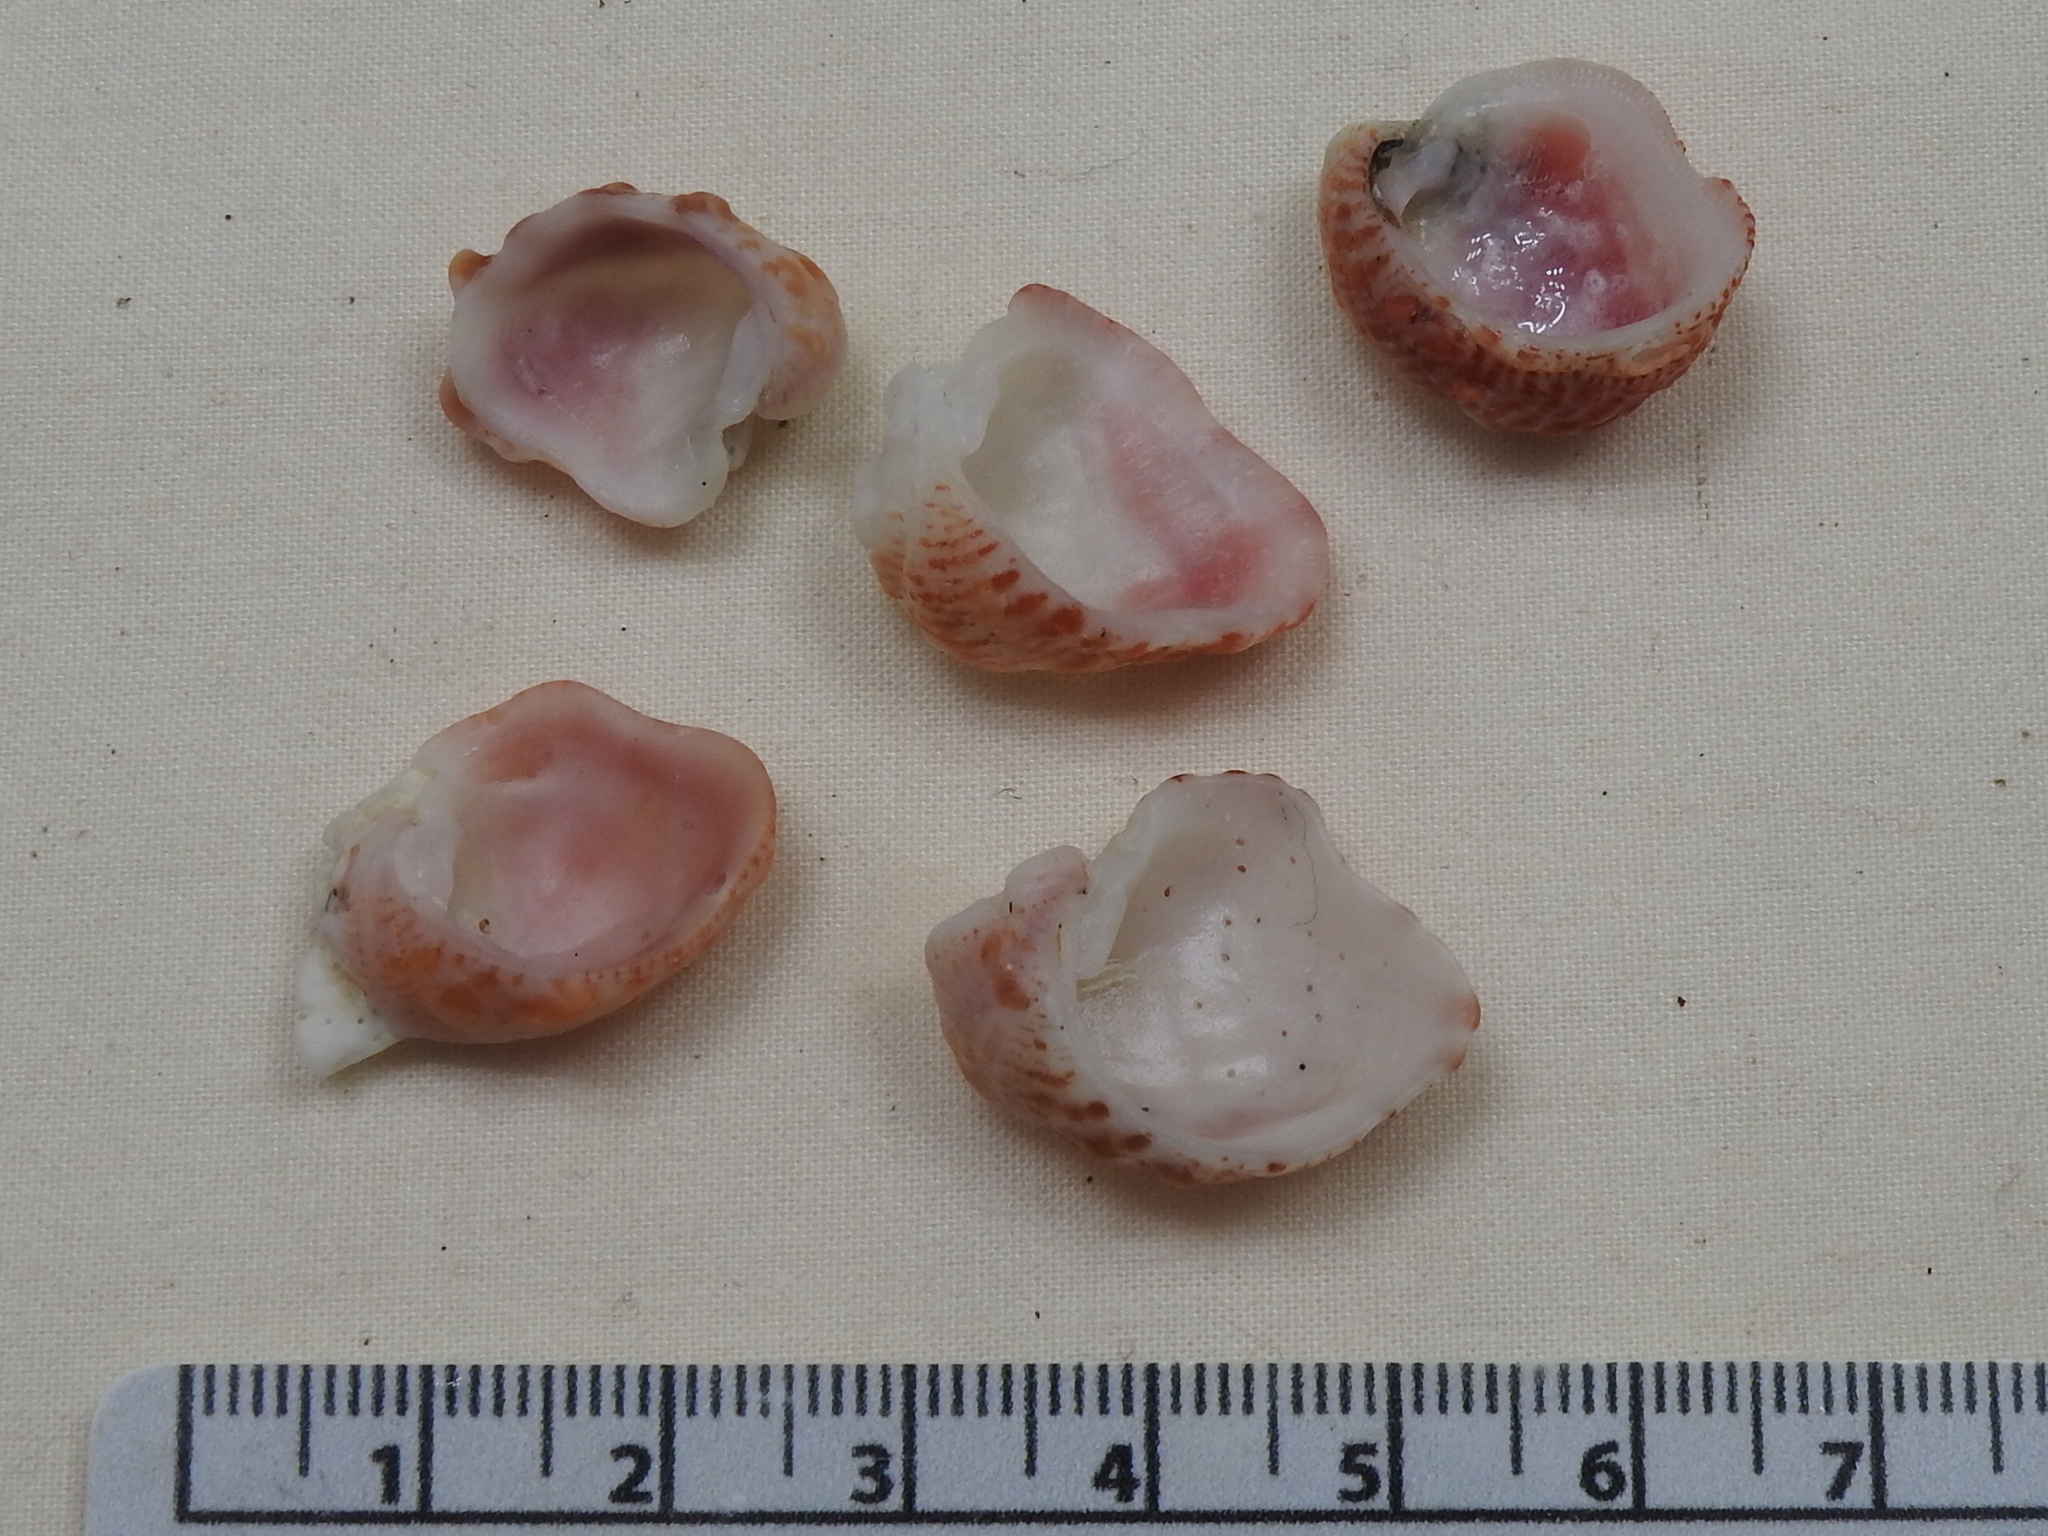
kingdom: Animalia
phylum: Mollusca
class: Bivalvia
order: Venerida
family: Chamidae
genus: Chama
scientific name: Chama congregata
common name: Corrugate jewelbox
